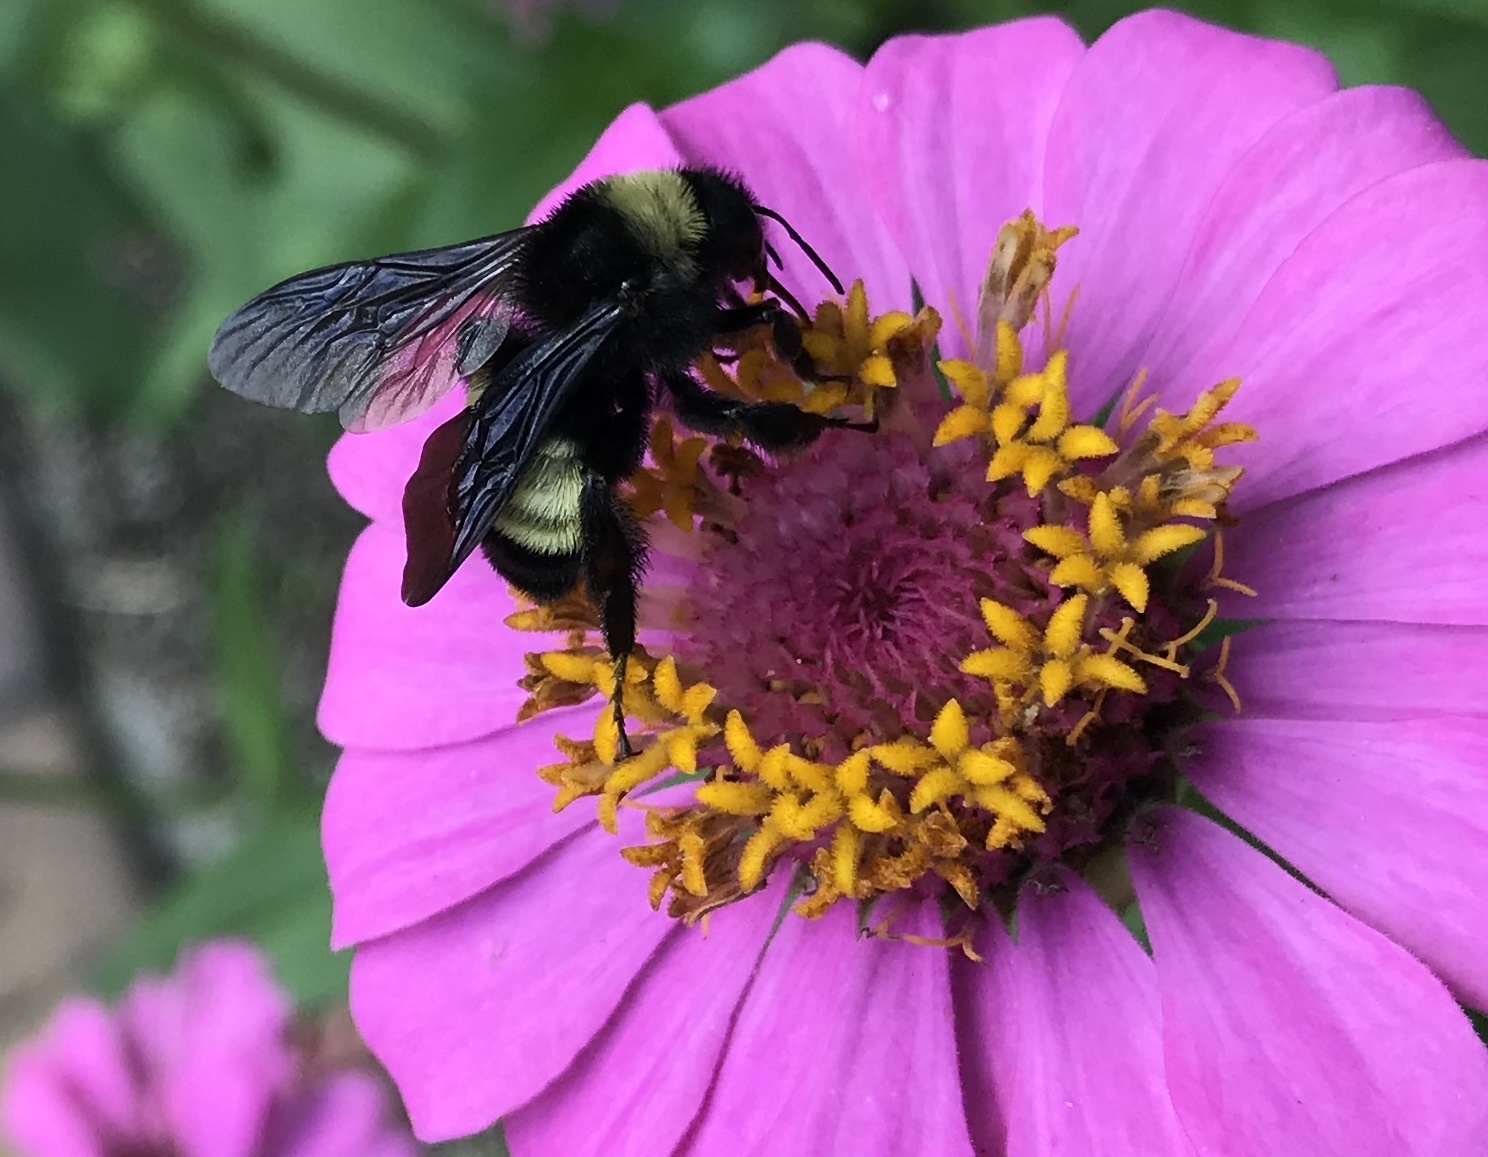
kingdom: Animalia
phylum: Arthropoda
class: Insecta
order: Hymenoptera
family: Apidae
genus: Bombus
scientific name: Bombus pensylvanicus
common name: Bumble bee
